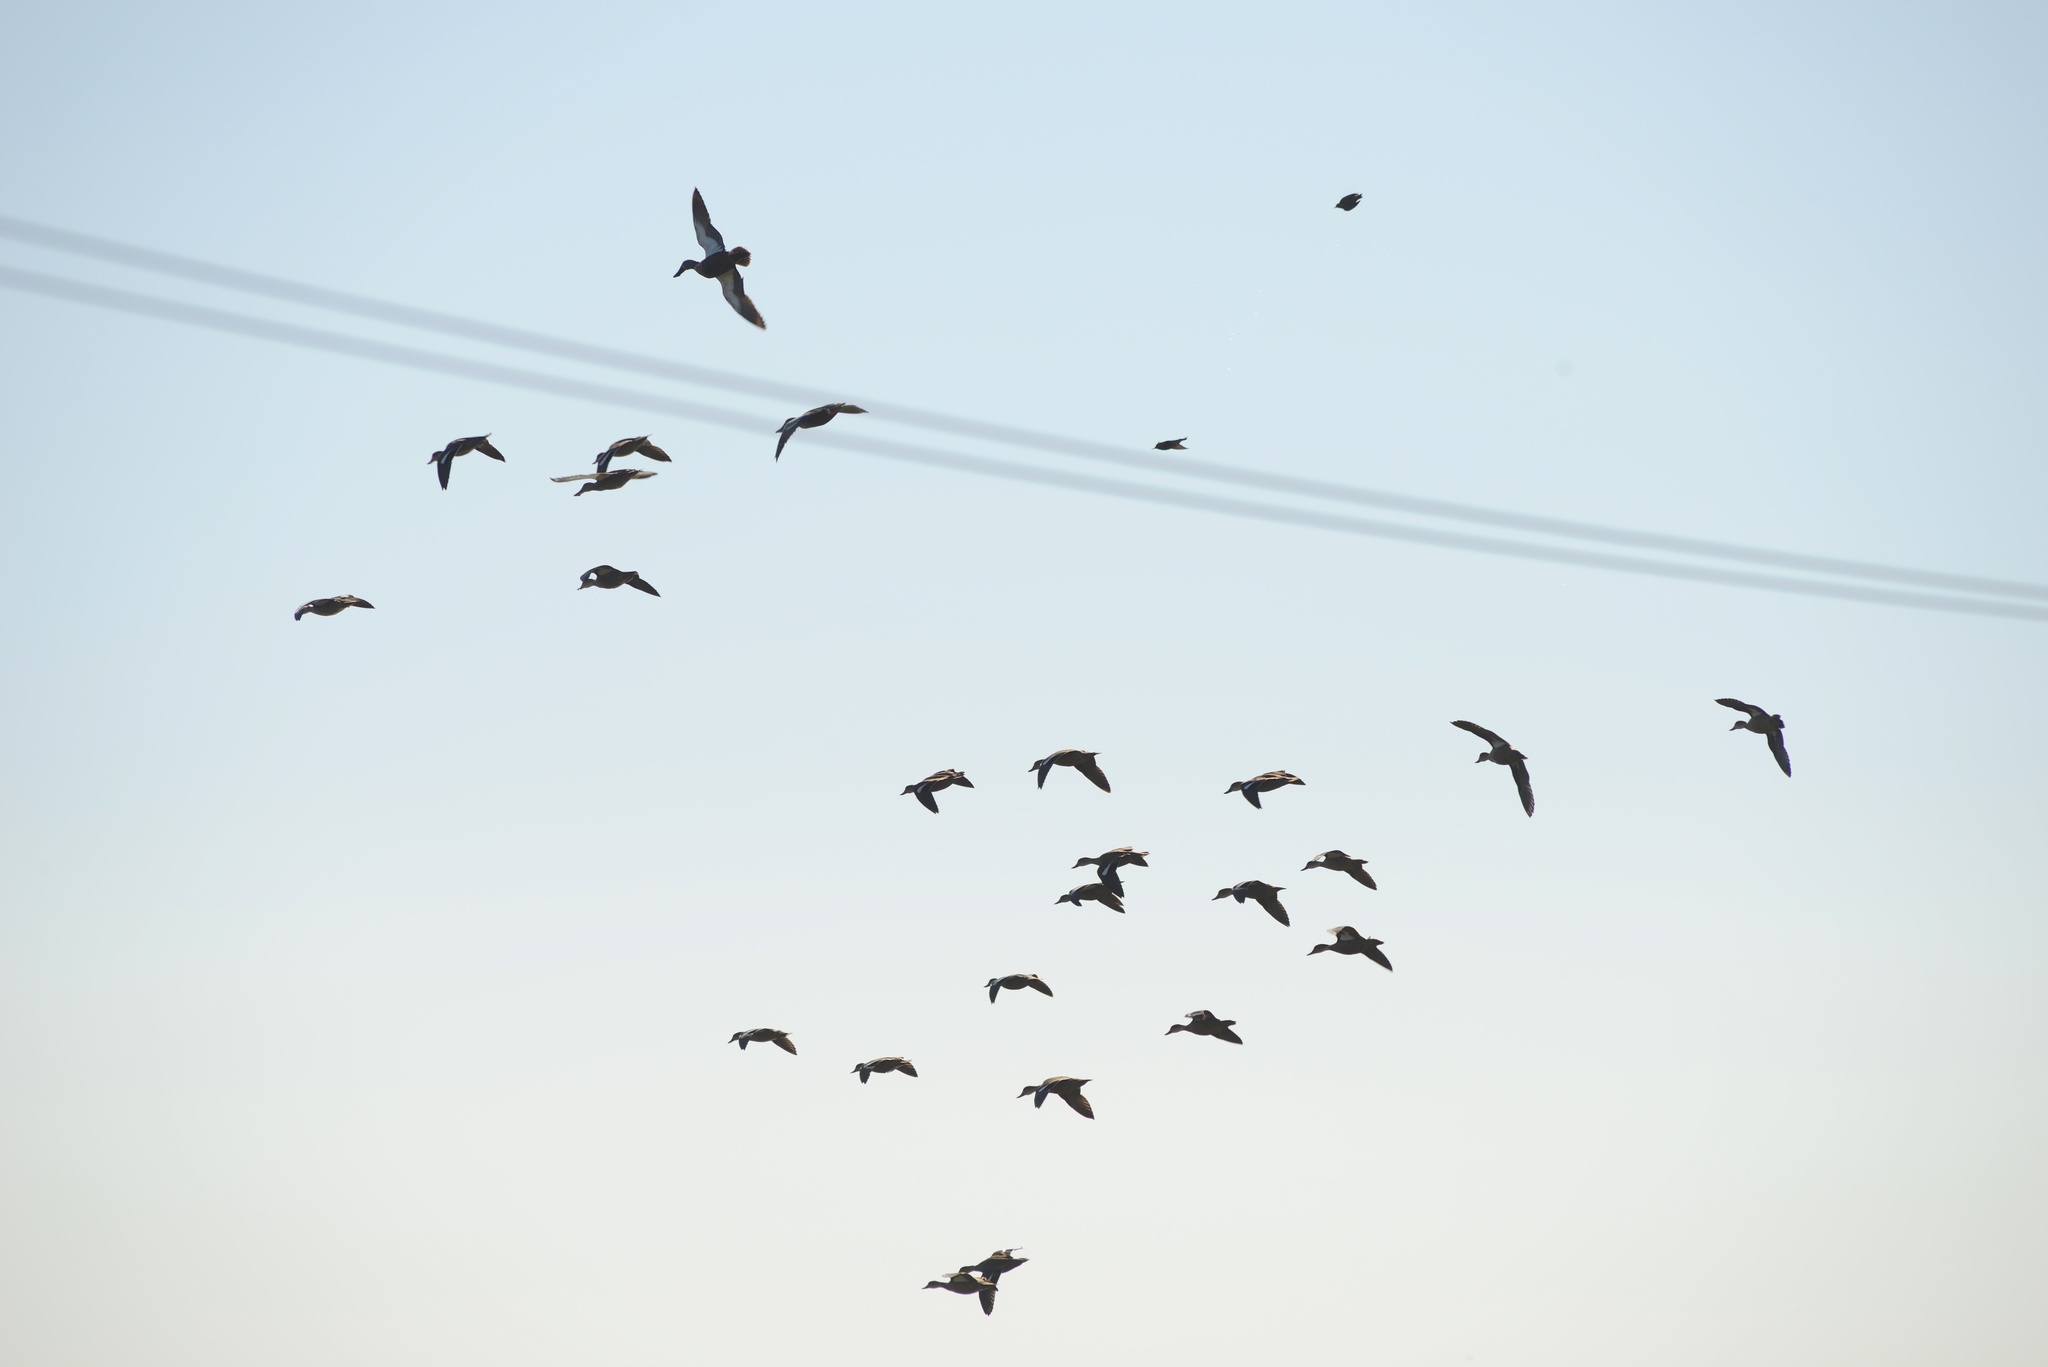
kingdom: Animalia
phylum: Chordata
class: Aves
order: Anseriformes
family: Anatidae
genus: Spatula
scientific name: Spatula rhynchotis
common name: Australian shoveler
